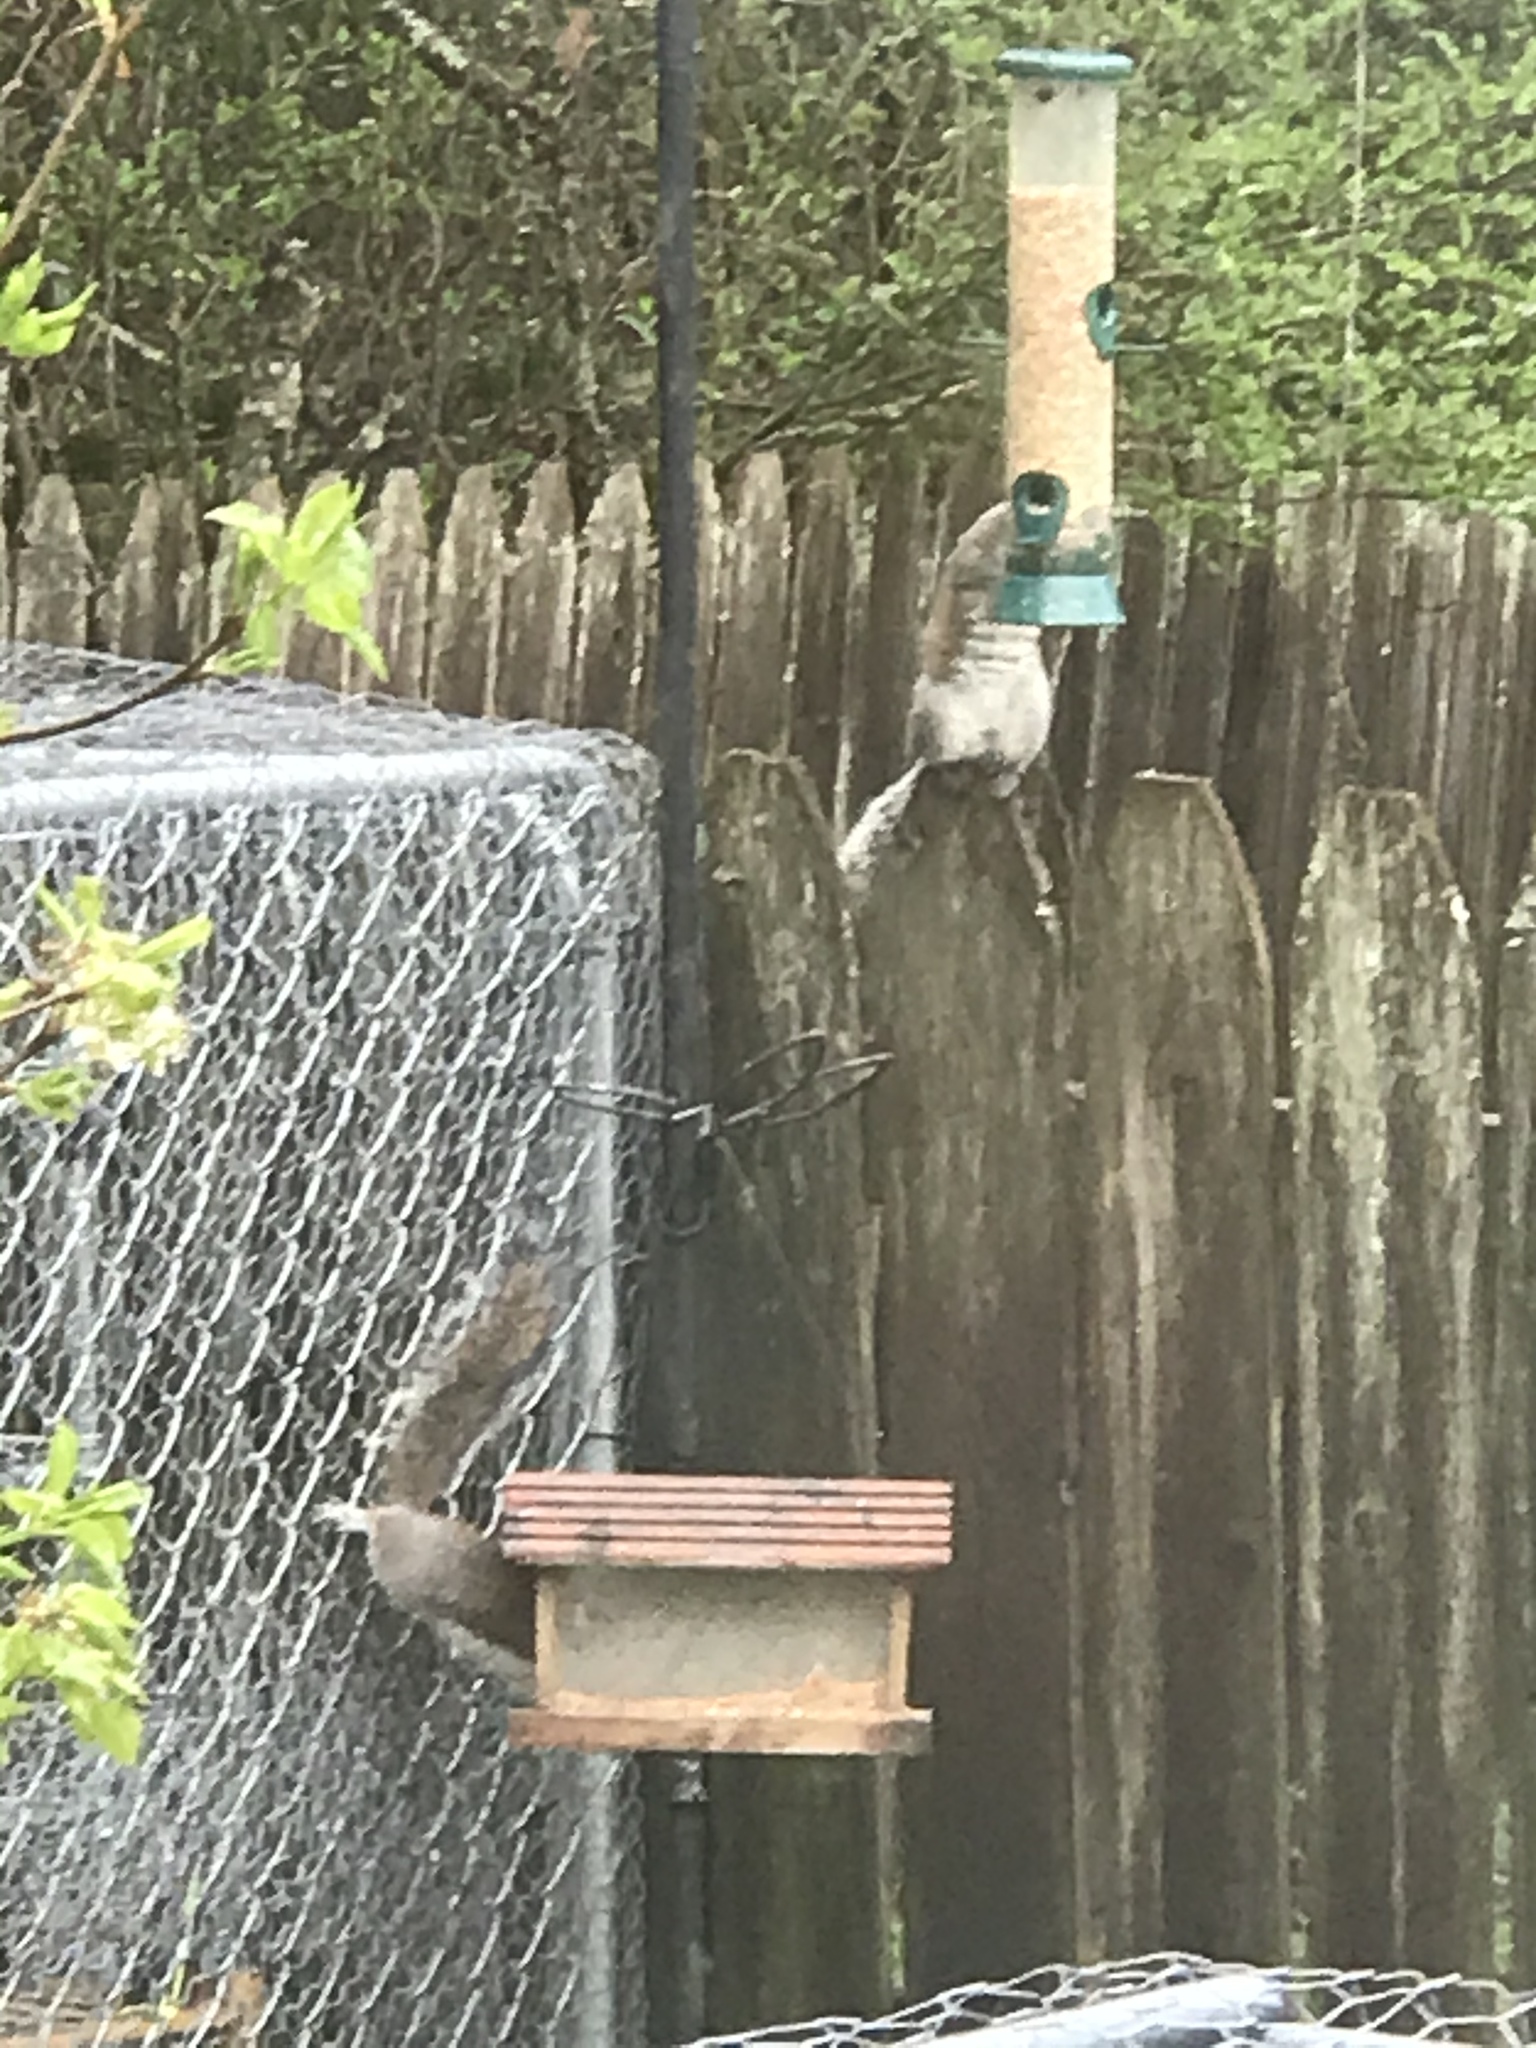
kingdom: Animalia
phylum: Chordata
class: Mammalia
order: Rodentia
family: Sciuridae
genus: Sciurus
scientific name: Sciurus carolinensis
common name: Eastern gray squirrel
